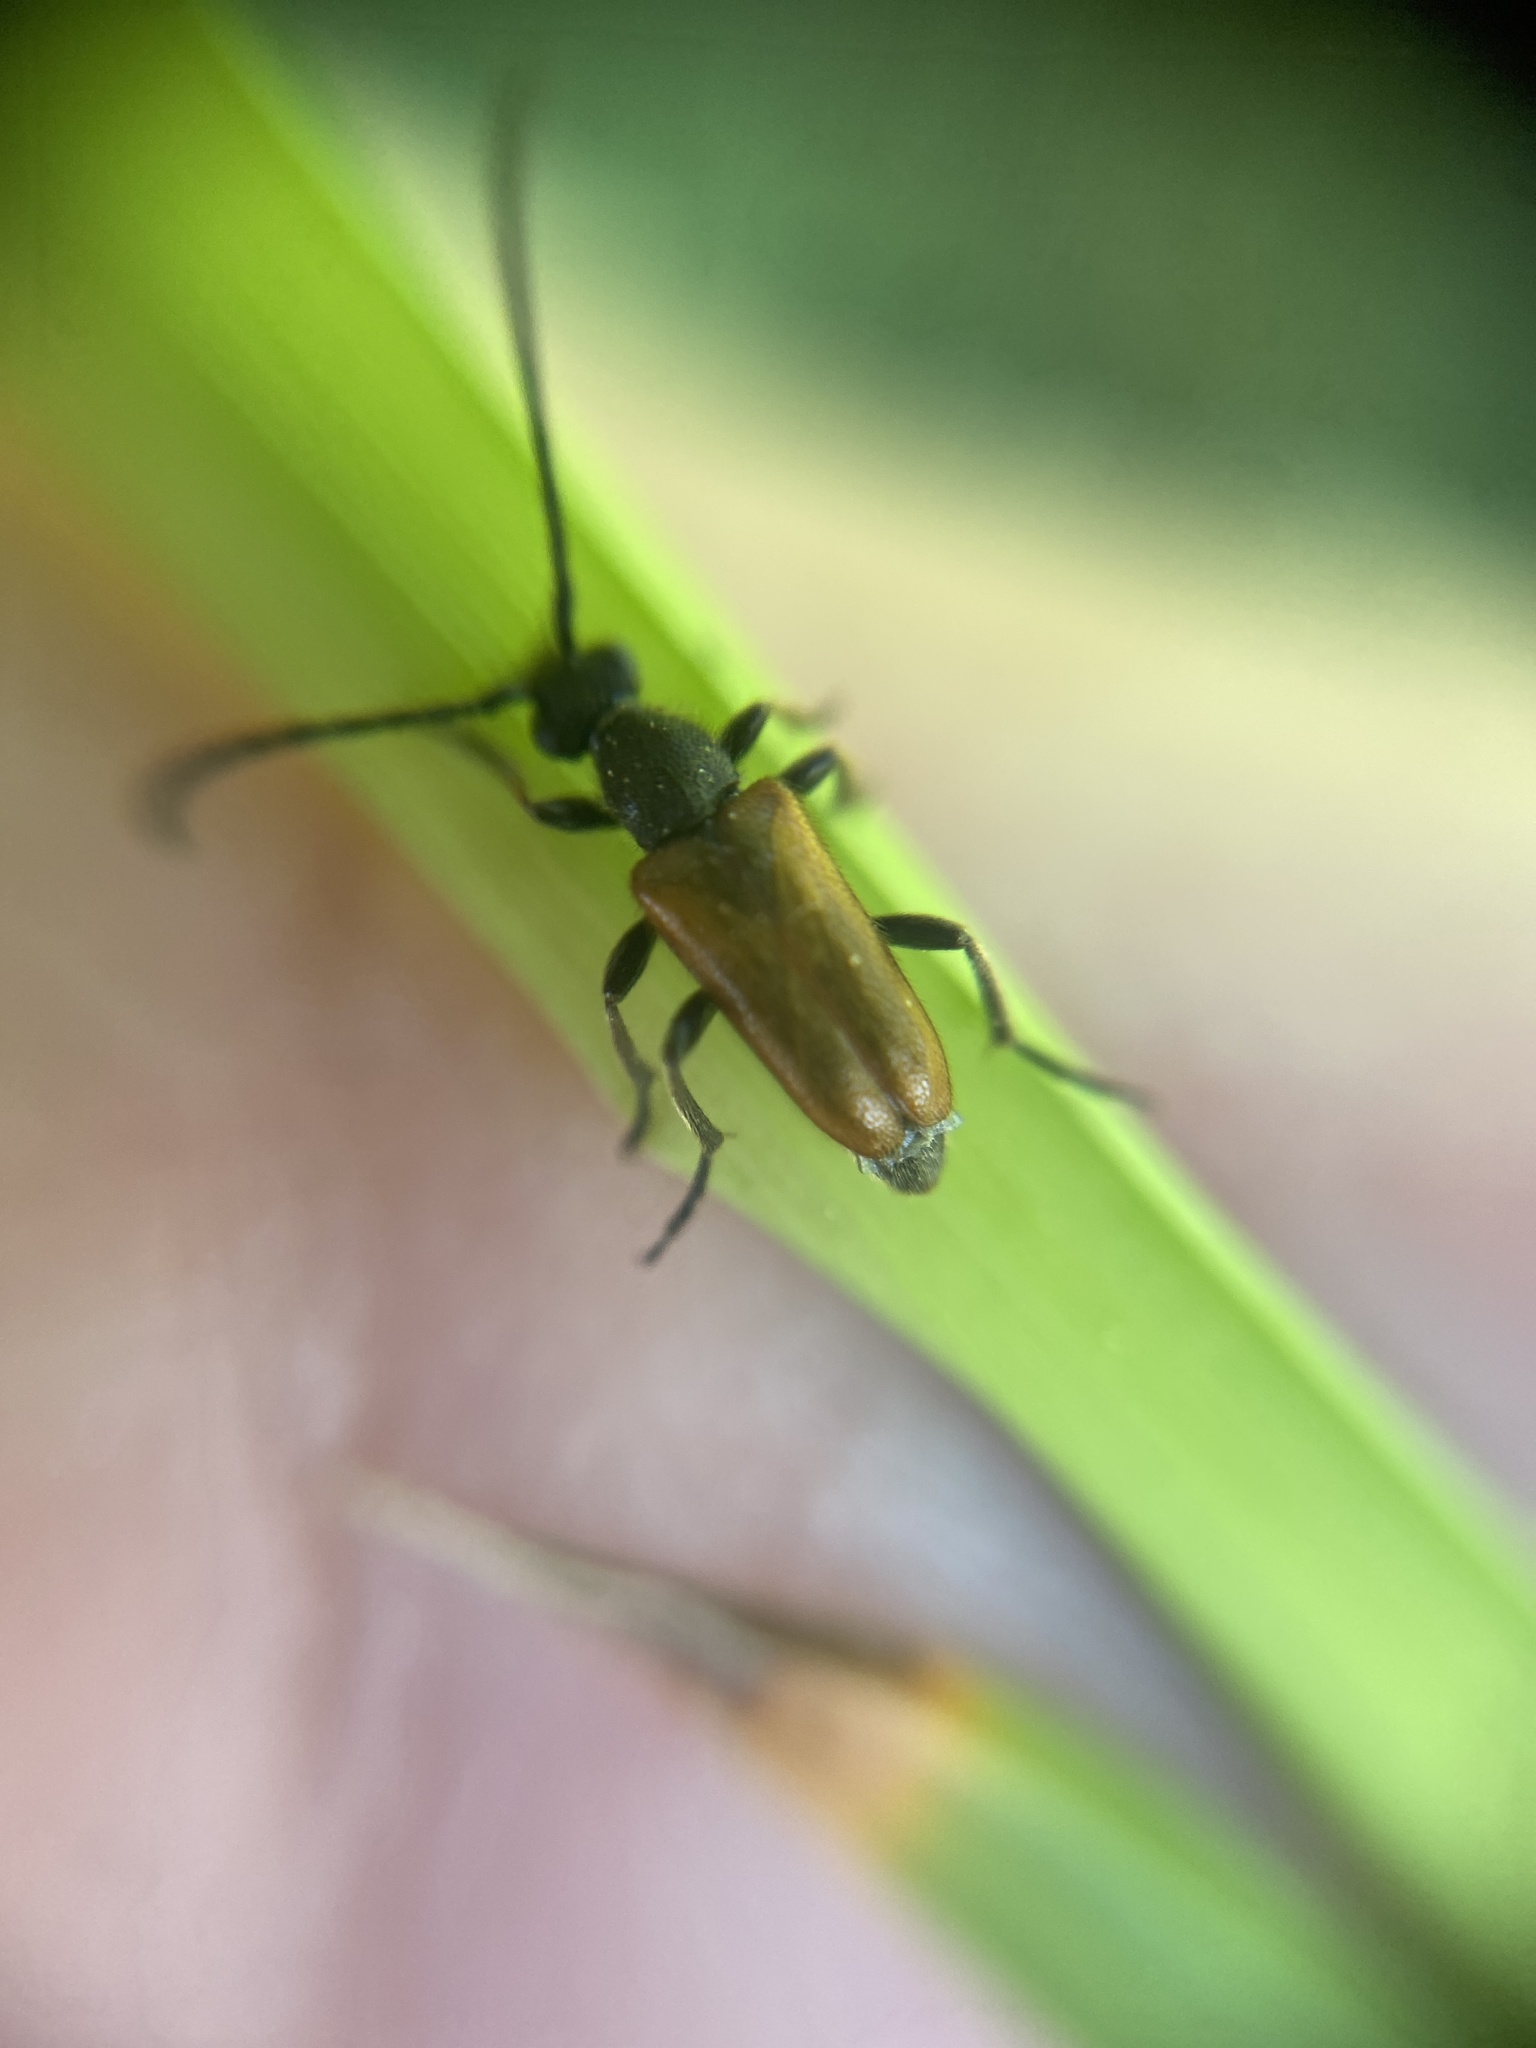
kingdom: Animalia
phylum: Arthropoda
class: Insecta
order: Coleoptera
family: Cerambycidae
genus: Pseudovadonia
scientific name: Pseudovadonia livida
